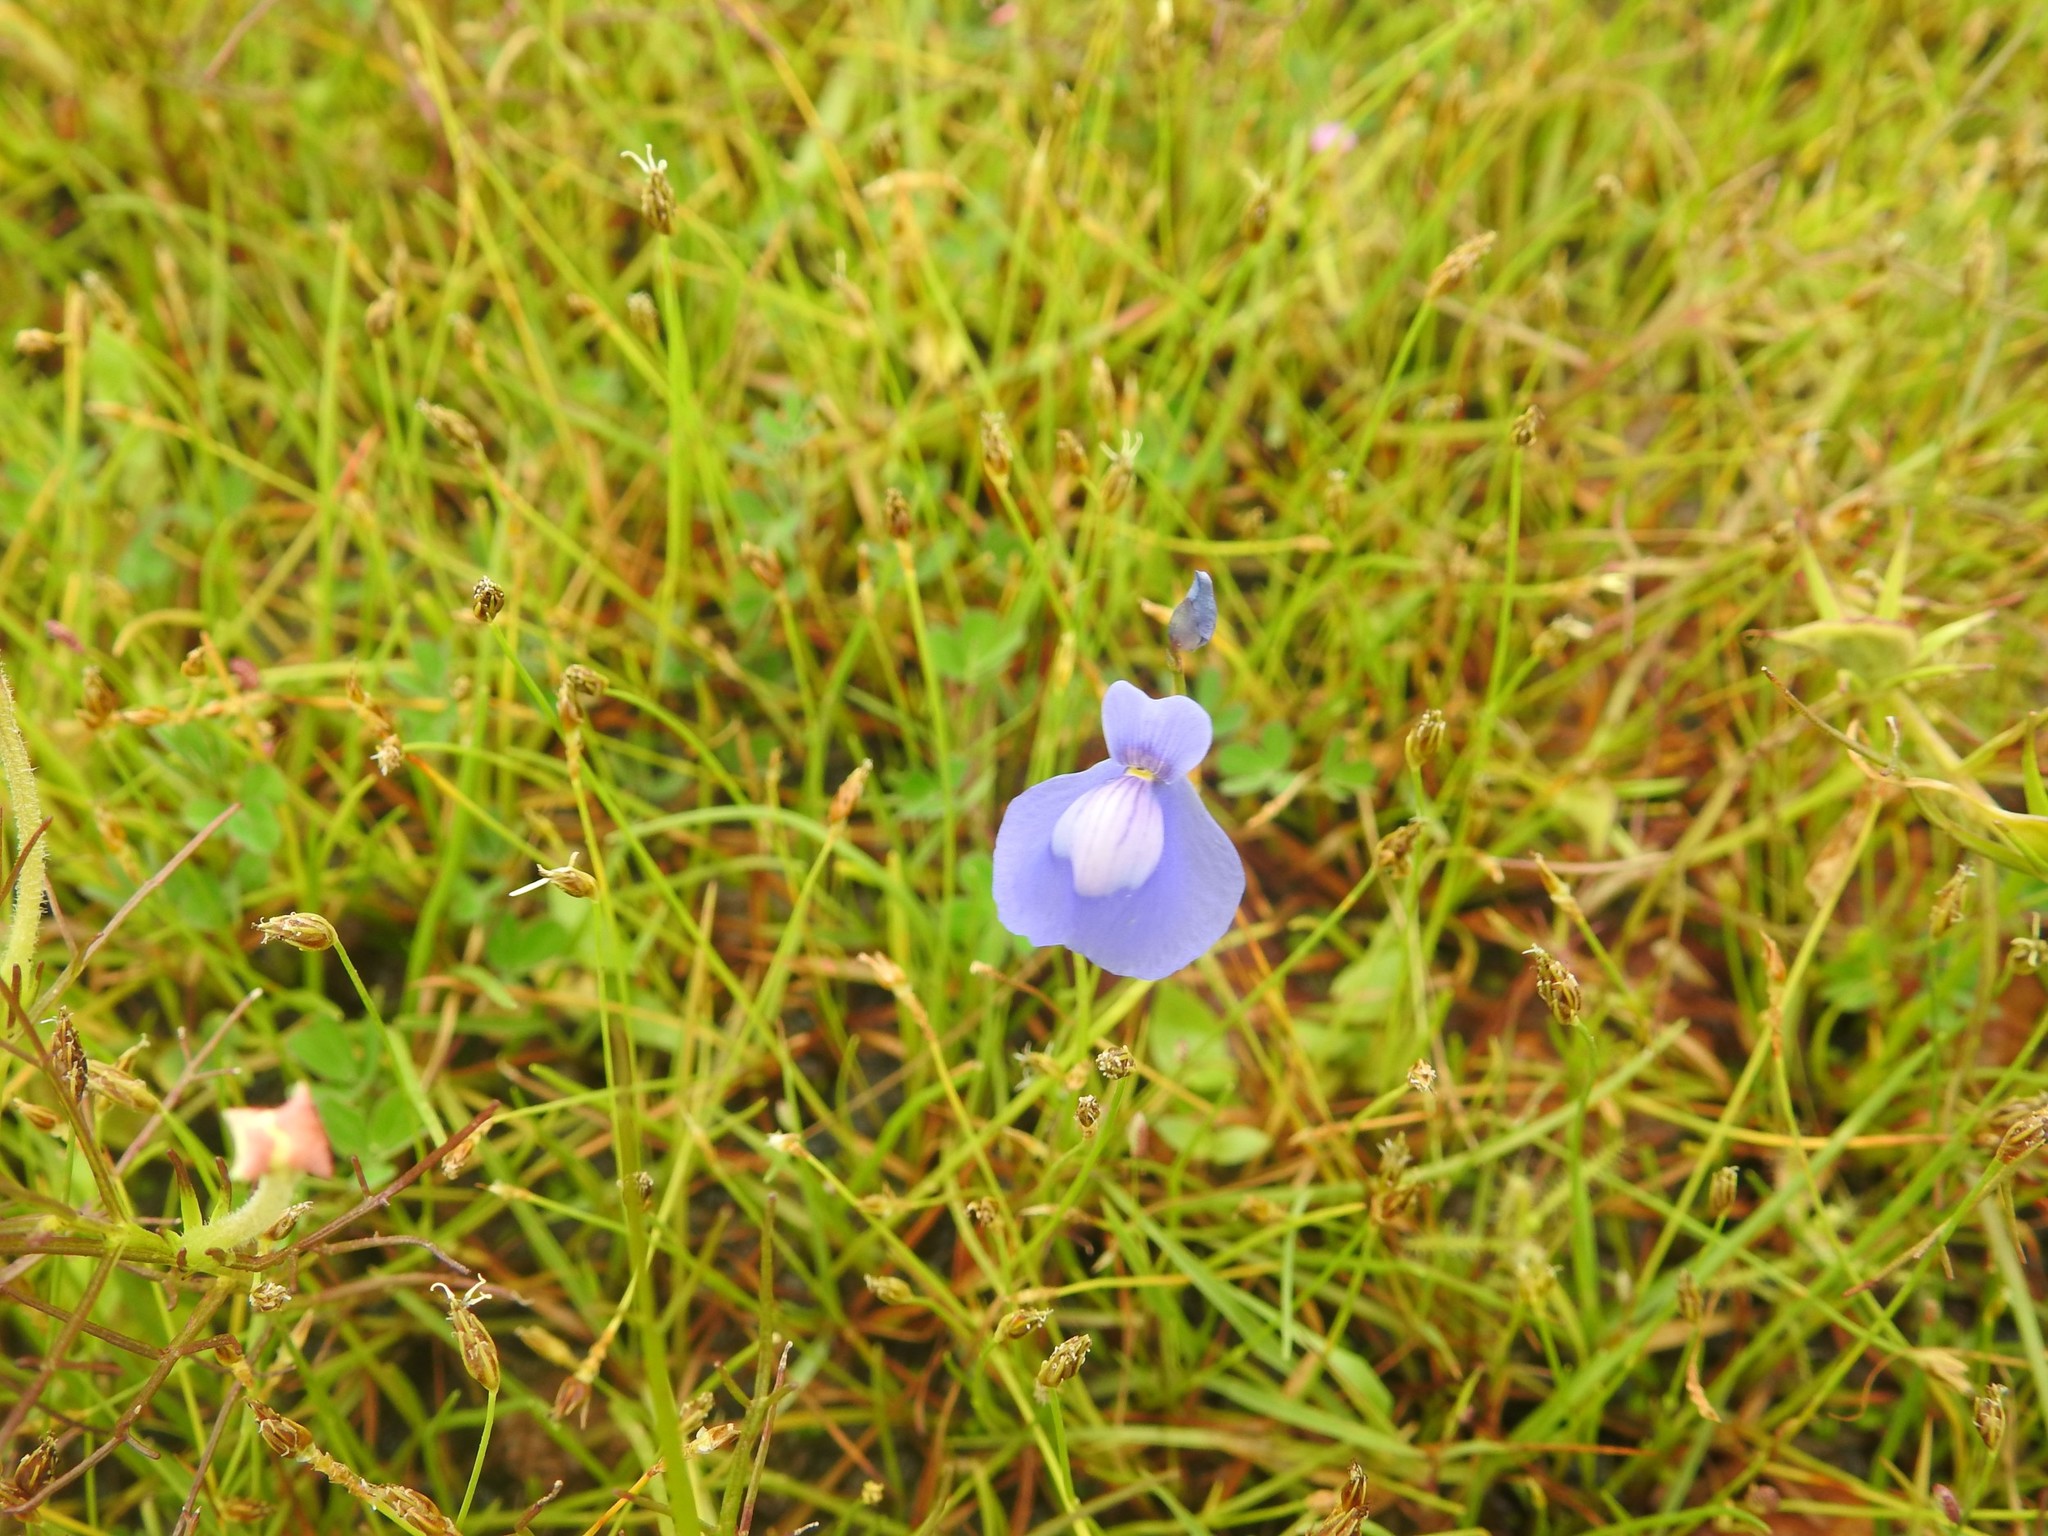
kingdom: Plantae
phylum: Tracheophyta
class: Magnoliopsida
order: Lamiales
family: Lentibulariaceae
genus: Utricularia
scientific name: Utricularia arcuata
